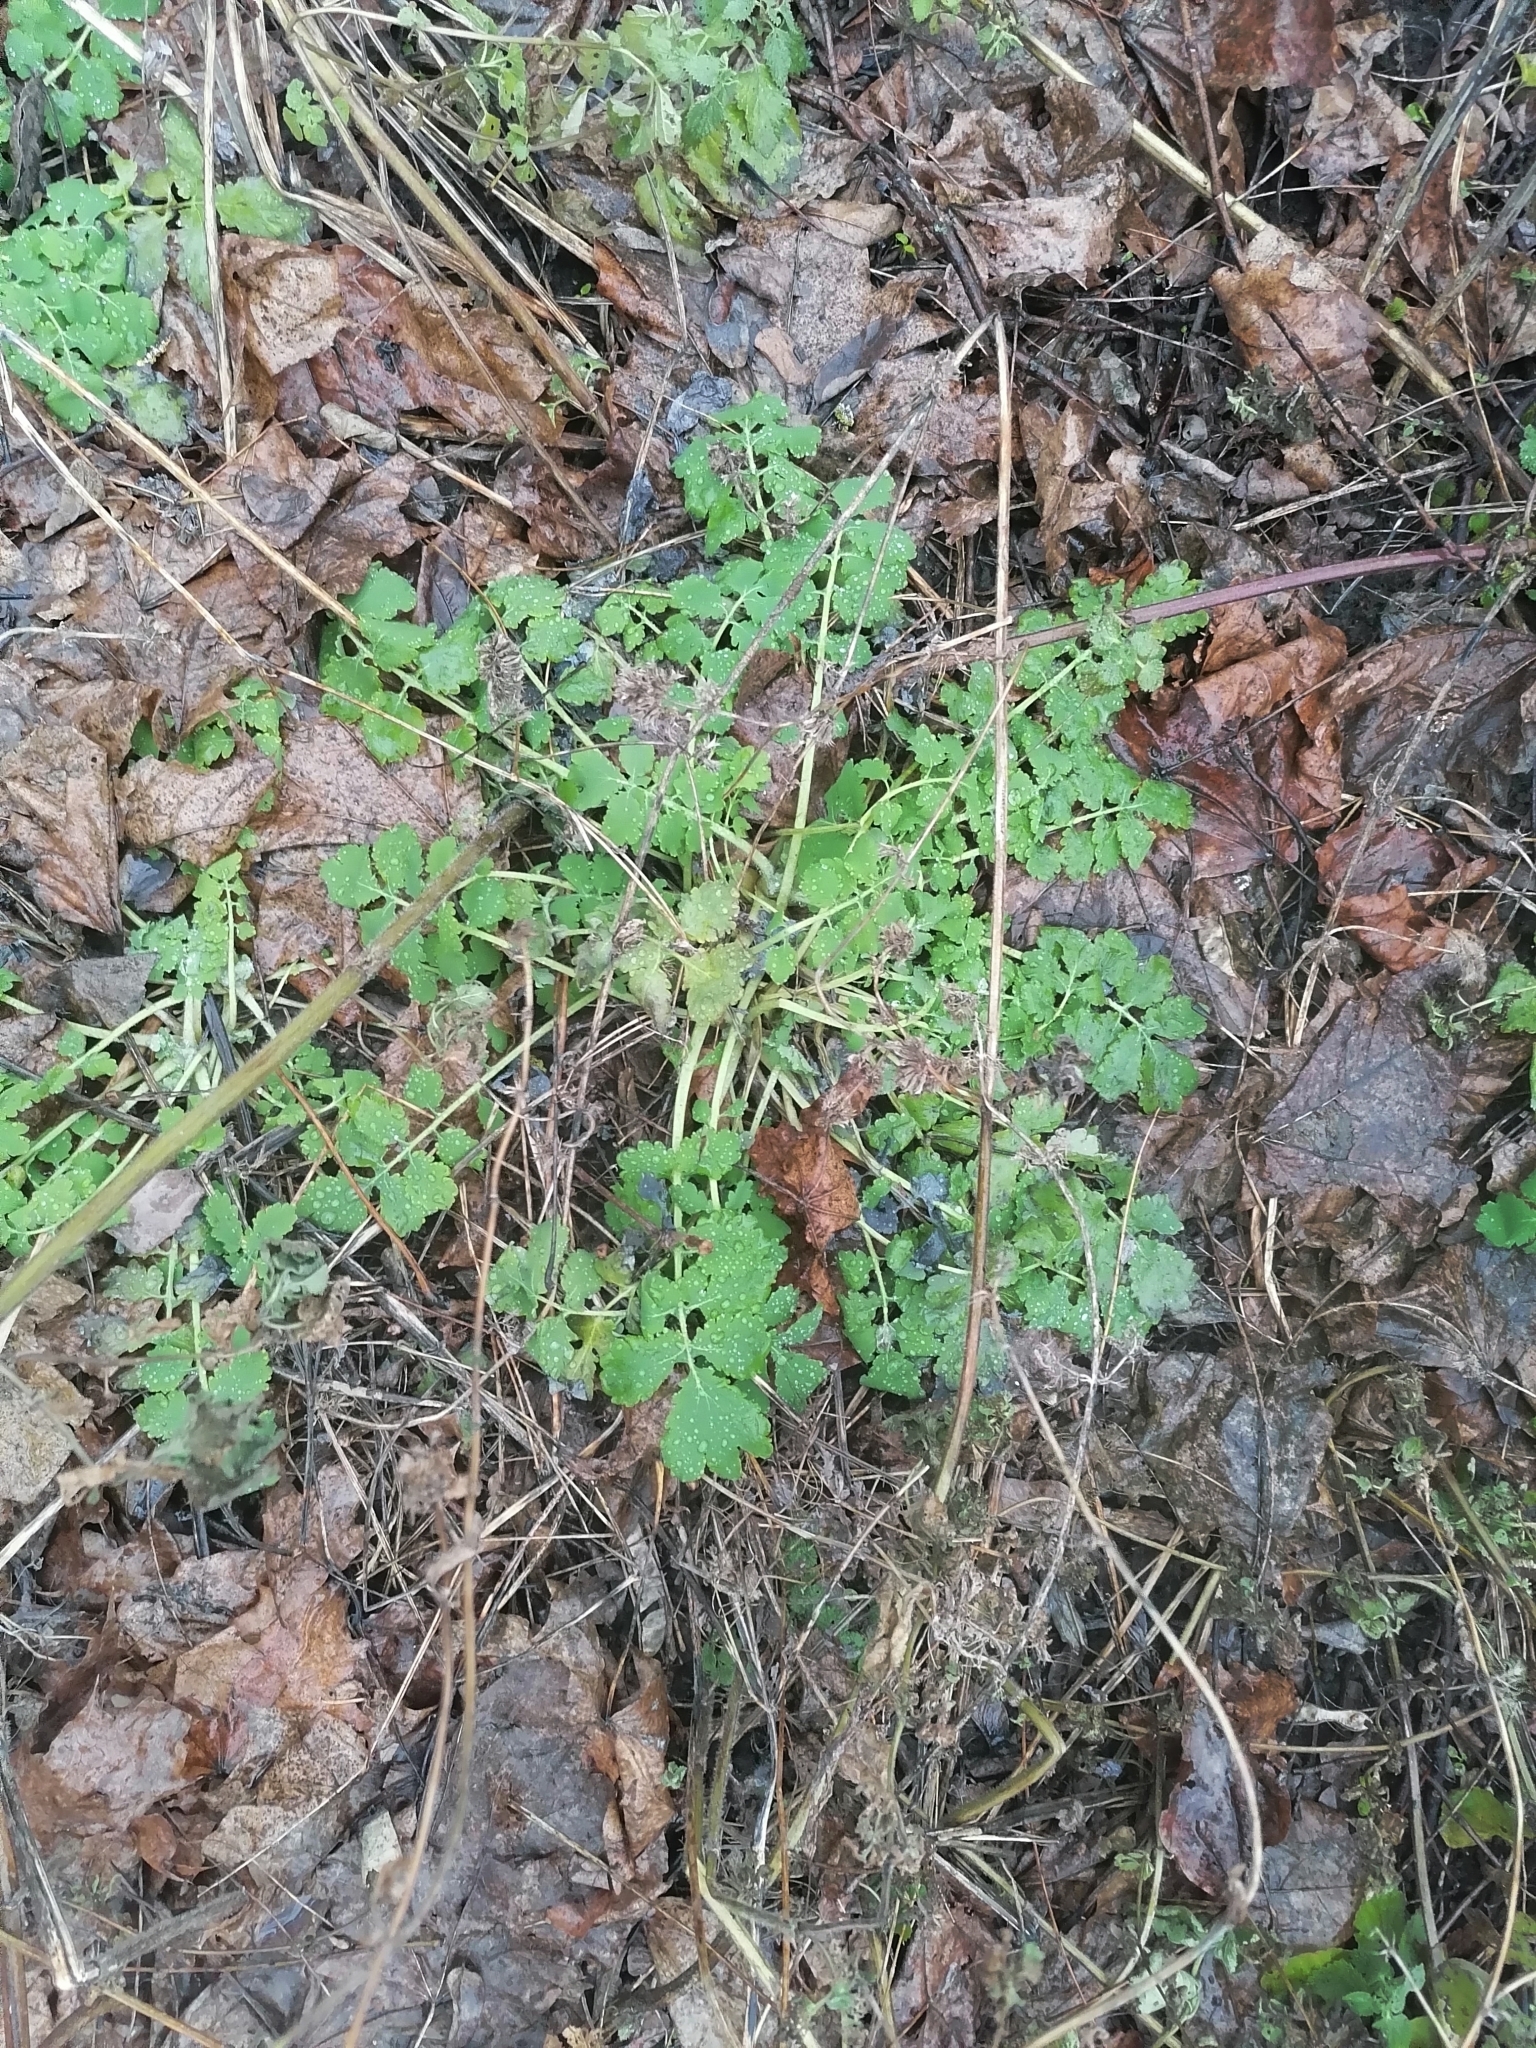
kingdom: Plantae
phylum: Tracheophyta
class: Magnoliopsida
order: Ranunculales
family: Papaveraceae
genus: Chelidonium
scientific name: Chelidonium majus
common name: Greater celandine
